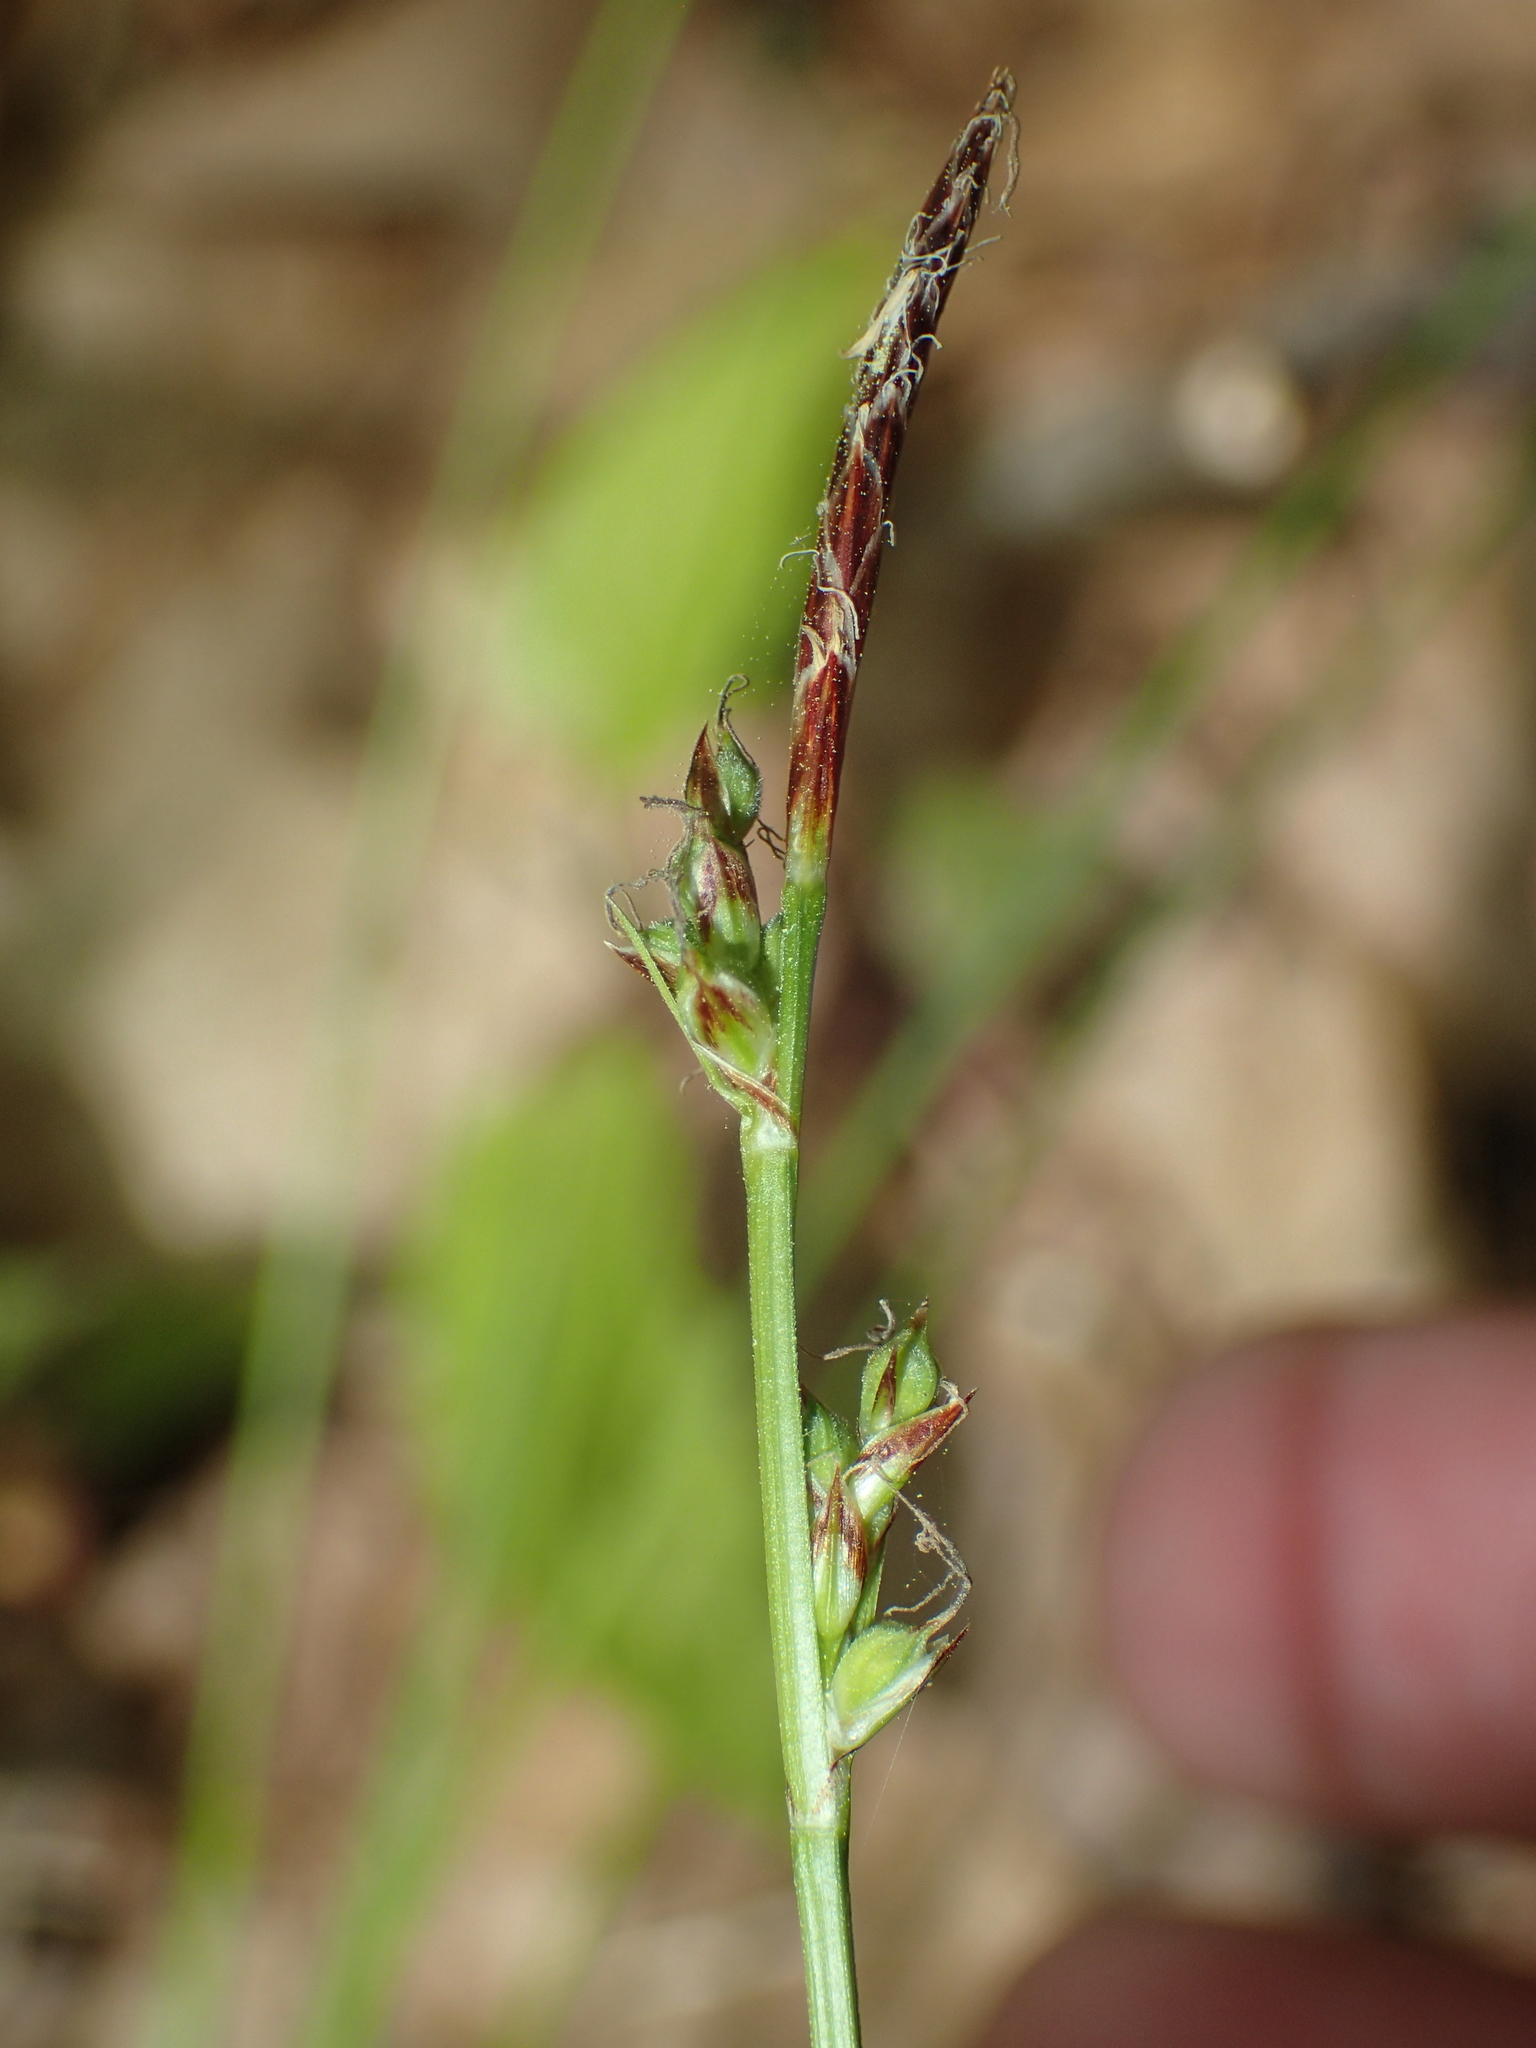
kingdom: Plantae
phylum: Tracheophyta
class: Liliopsida
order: Poales
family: Cyperaceae
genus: Carex
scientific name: Carex communis
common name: Colonial oak sedge
